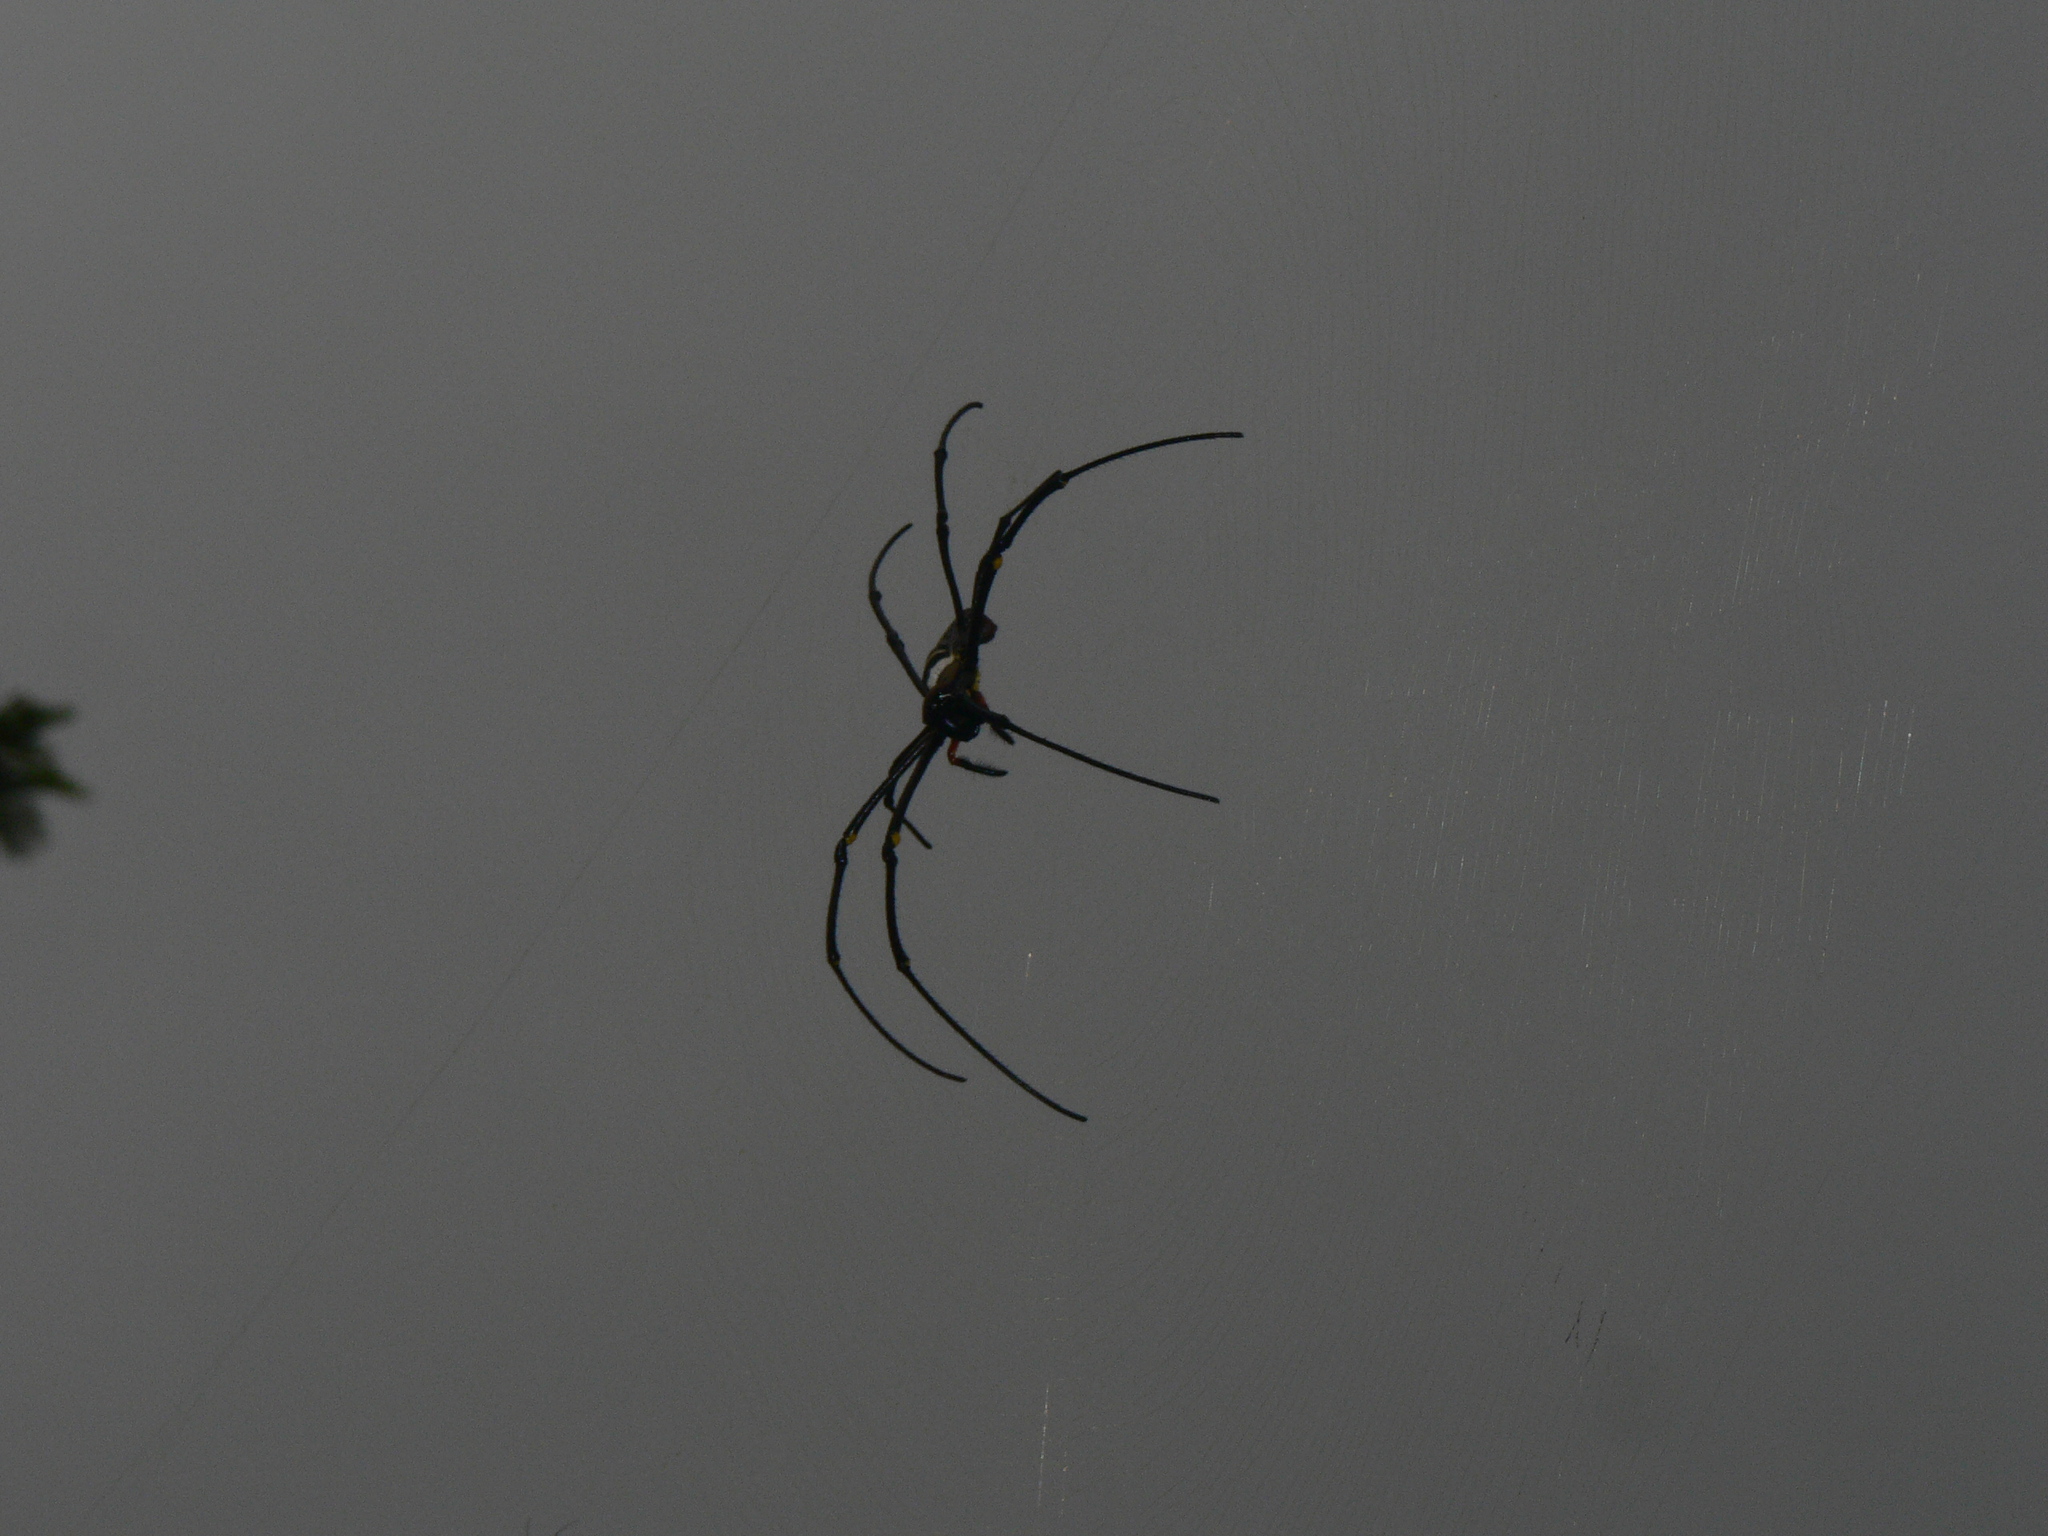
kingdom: Animalia
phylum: Arthropoda
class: Arachnida
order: Araneae
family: Araneidae
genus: Nephila
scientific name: Nephila pilipes
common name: Giant golden orb weaver
